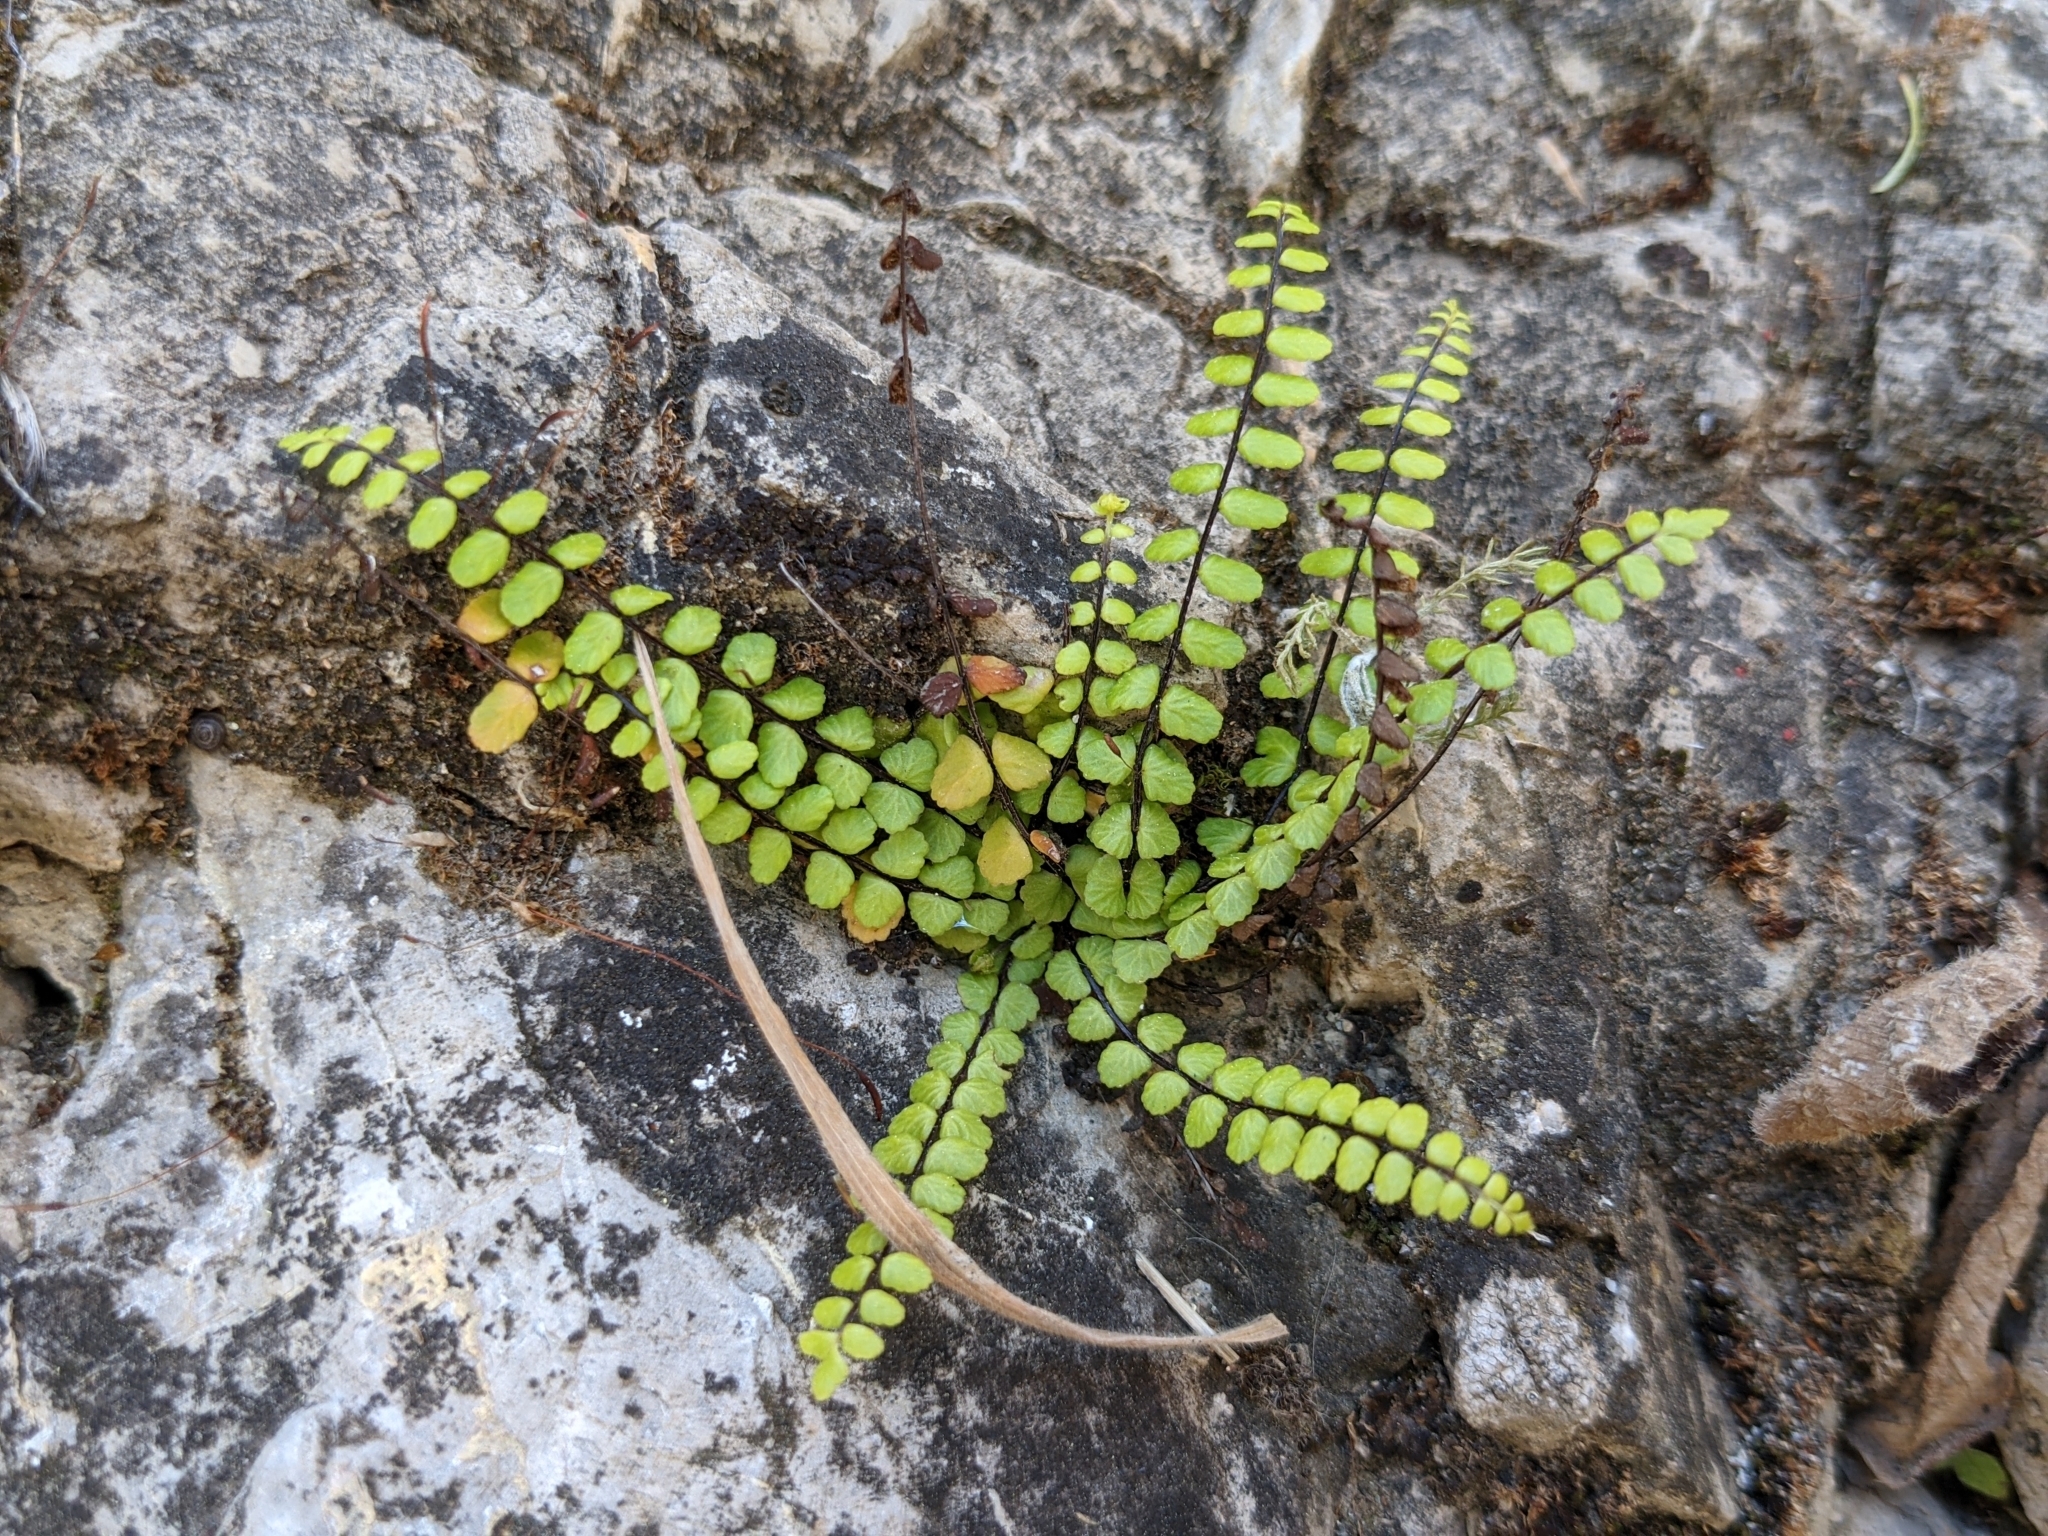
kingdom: Plantae
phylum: Tracheophyta
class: Polypodiopsida
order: Polypodiales
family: Aspleniaceae
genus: Asplenium
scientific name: Asplenium trichomanes
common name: Maidenhair spleenwort
